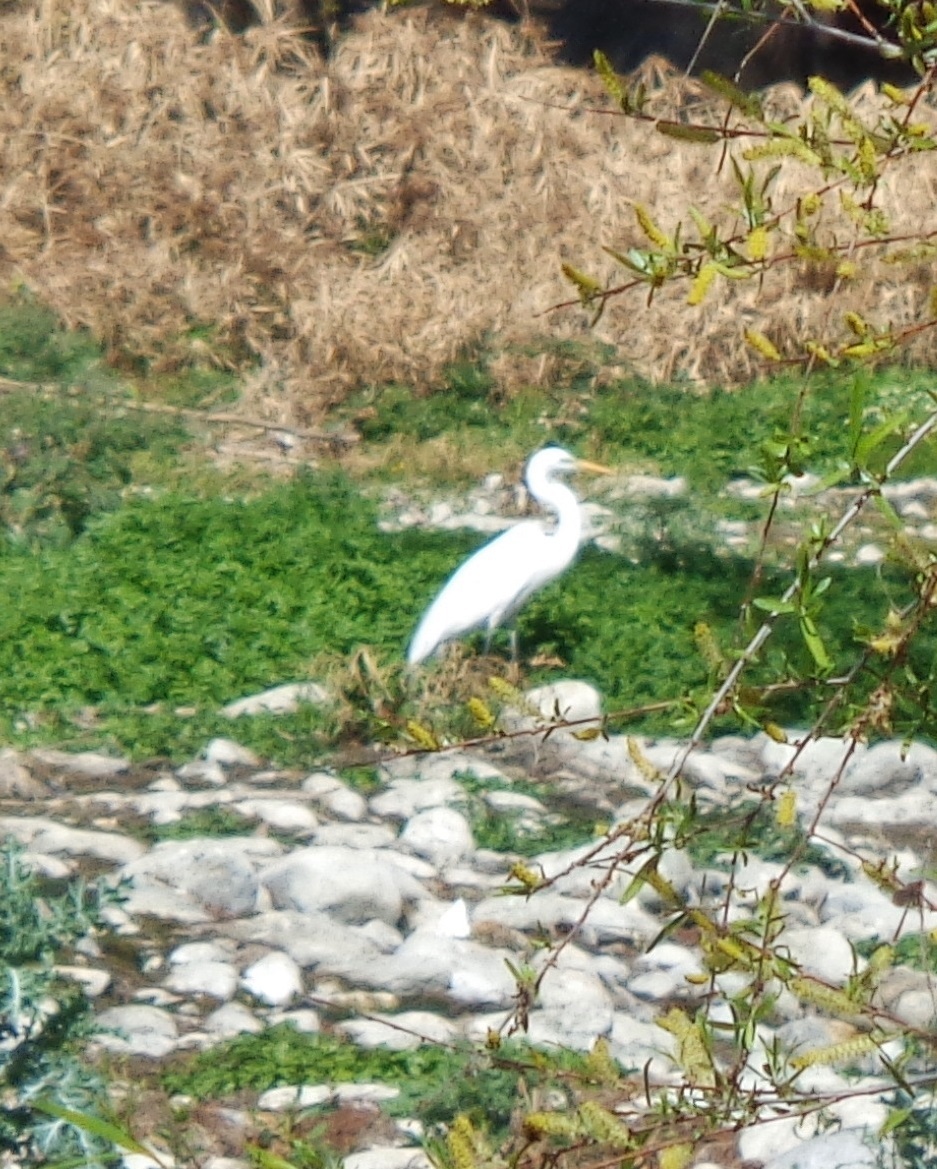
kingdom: Animalia
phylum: Chordata
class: Aves
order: Pelecaniformes
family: Ardeidae
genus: Ardea
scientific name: Ardea alba
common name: Great egret
